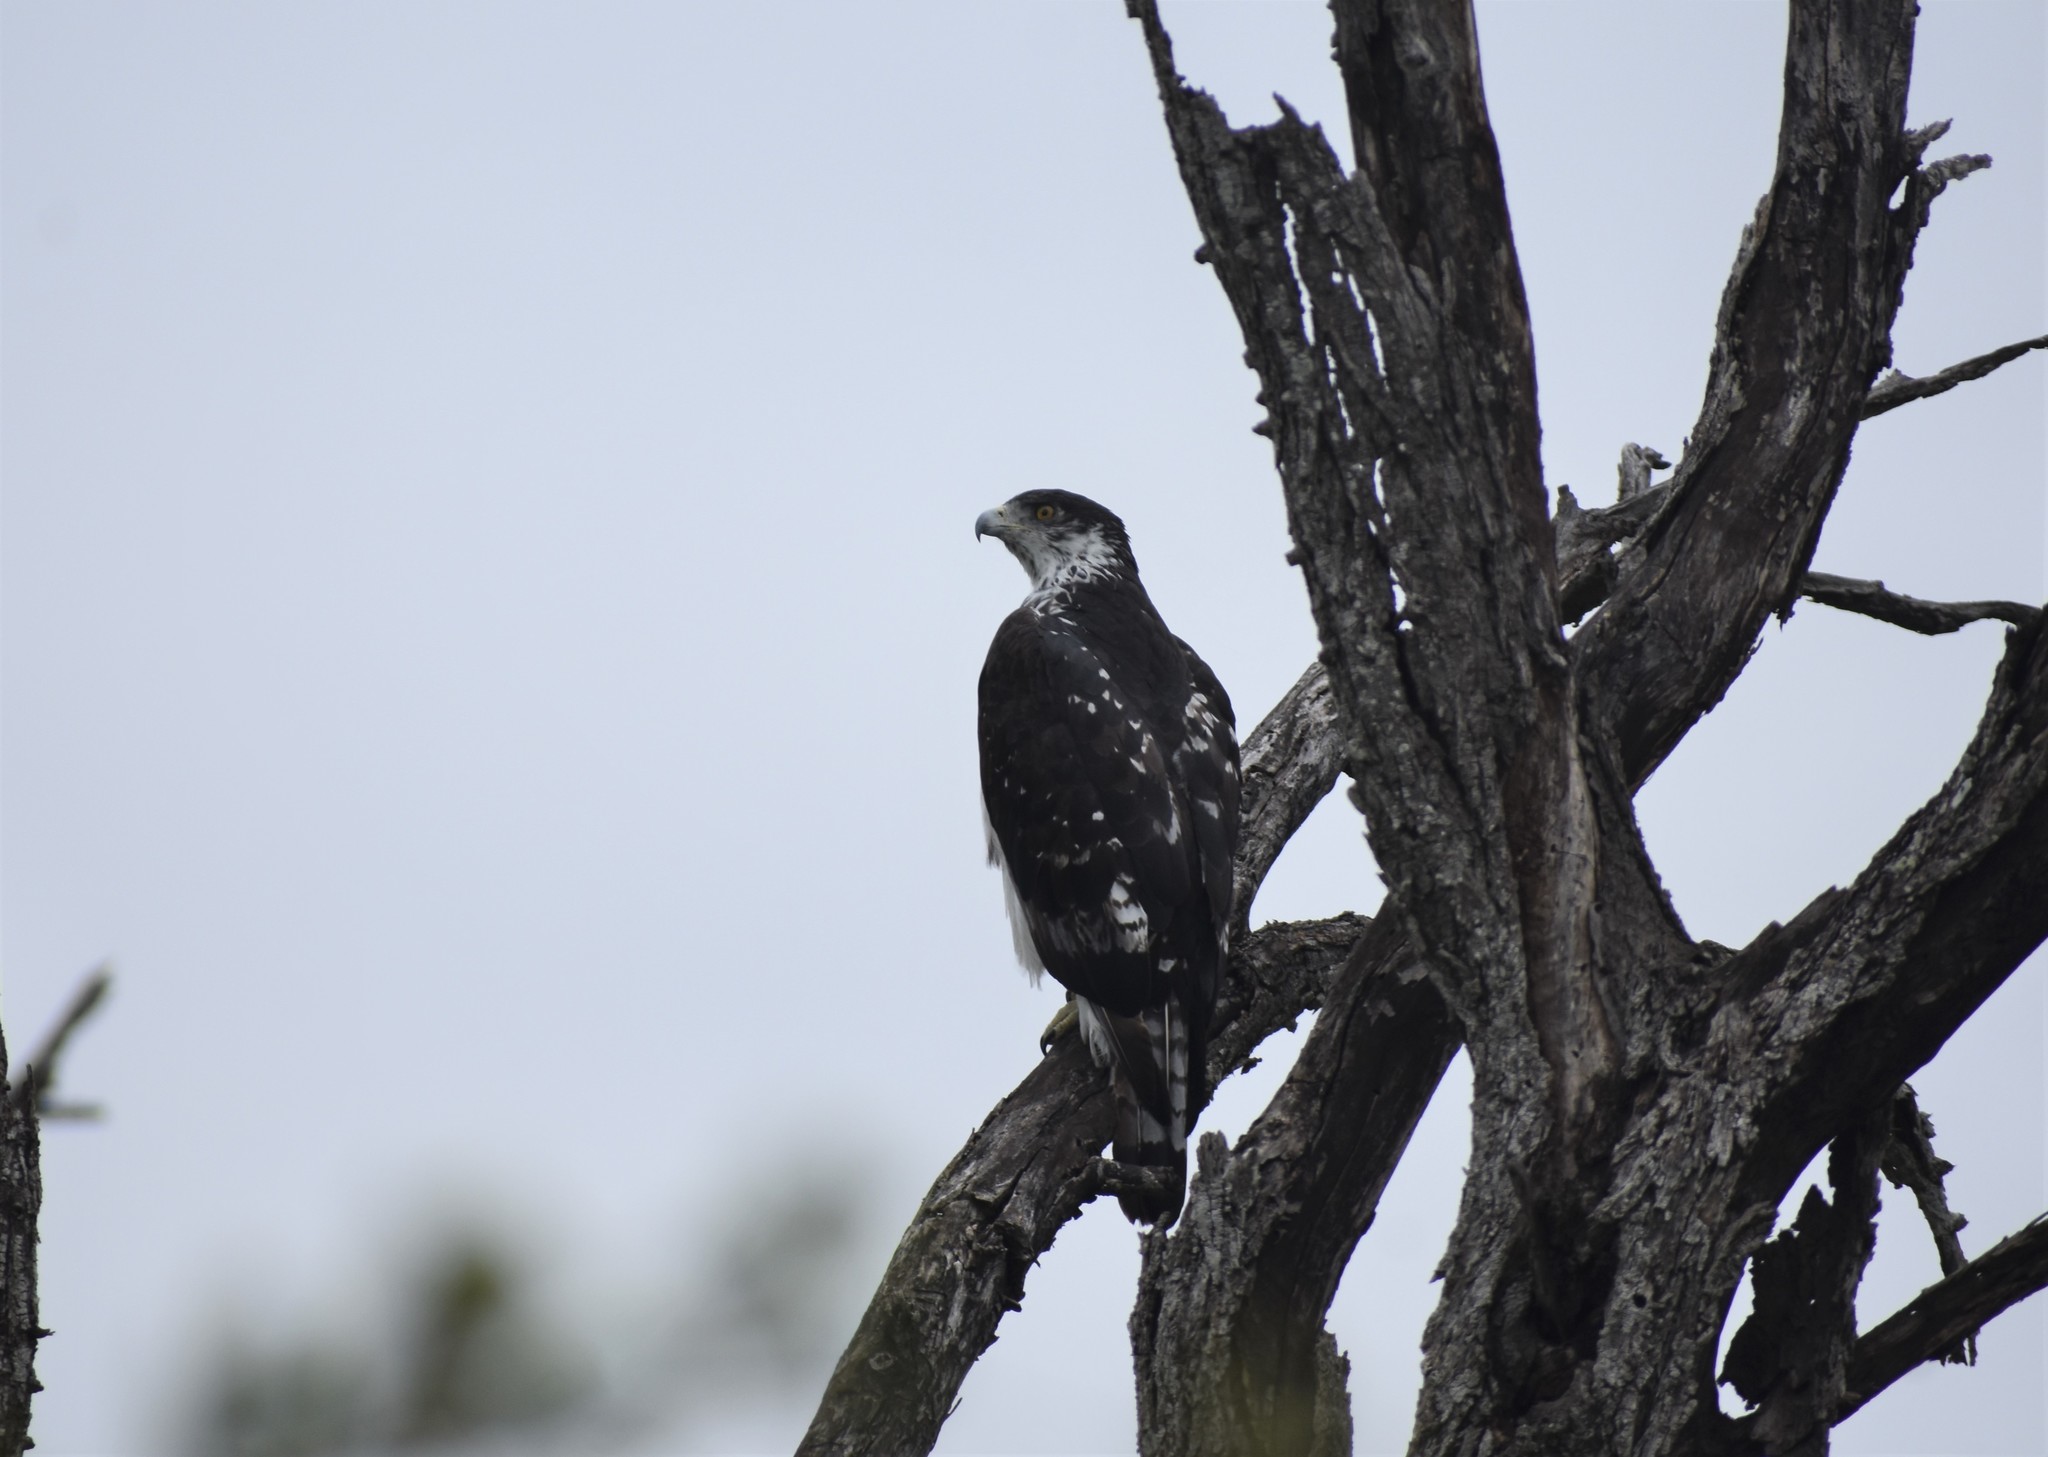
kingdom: Animalia
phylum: Chordata
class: Aves
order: Accipitriformes
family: Accipitridae
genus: Aquila
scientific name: Aquila spilogaster
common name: African hawk-eagle
